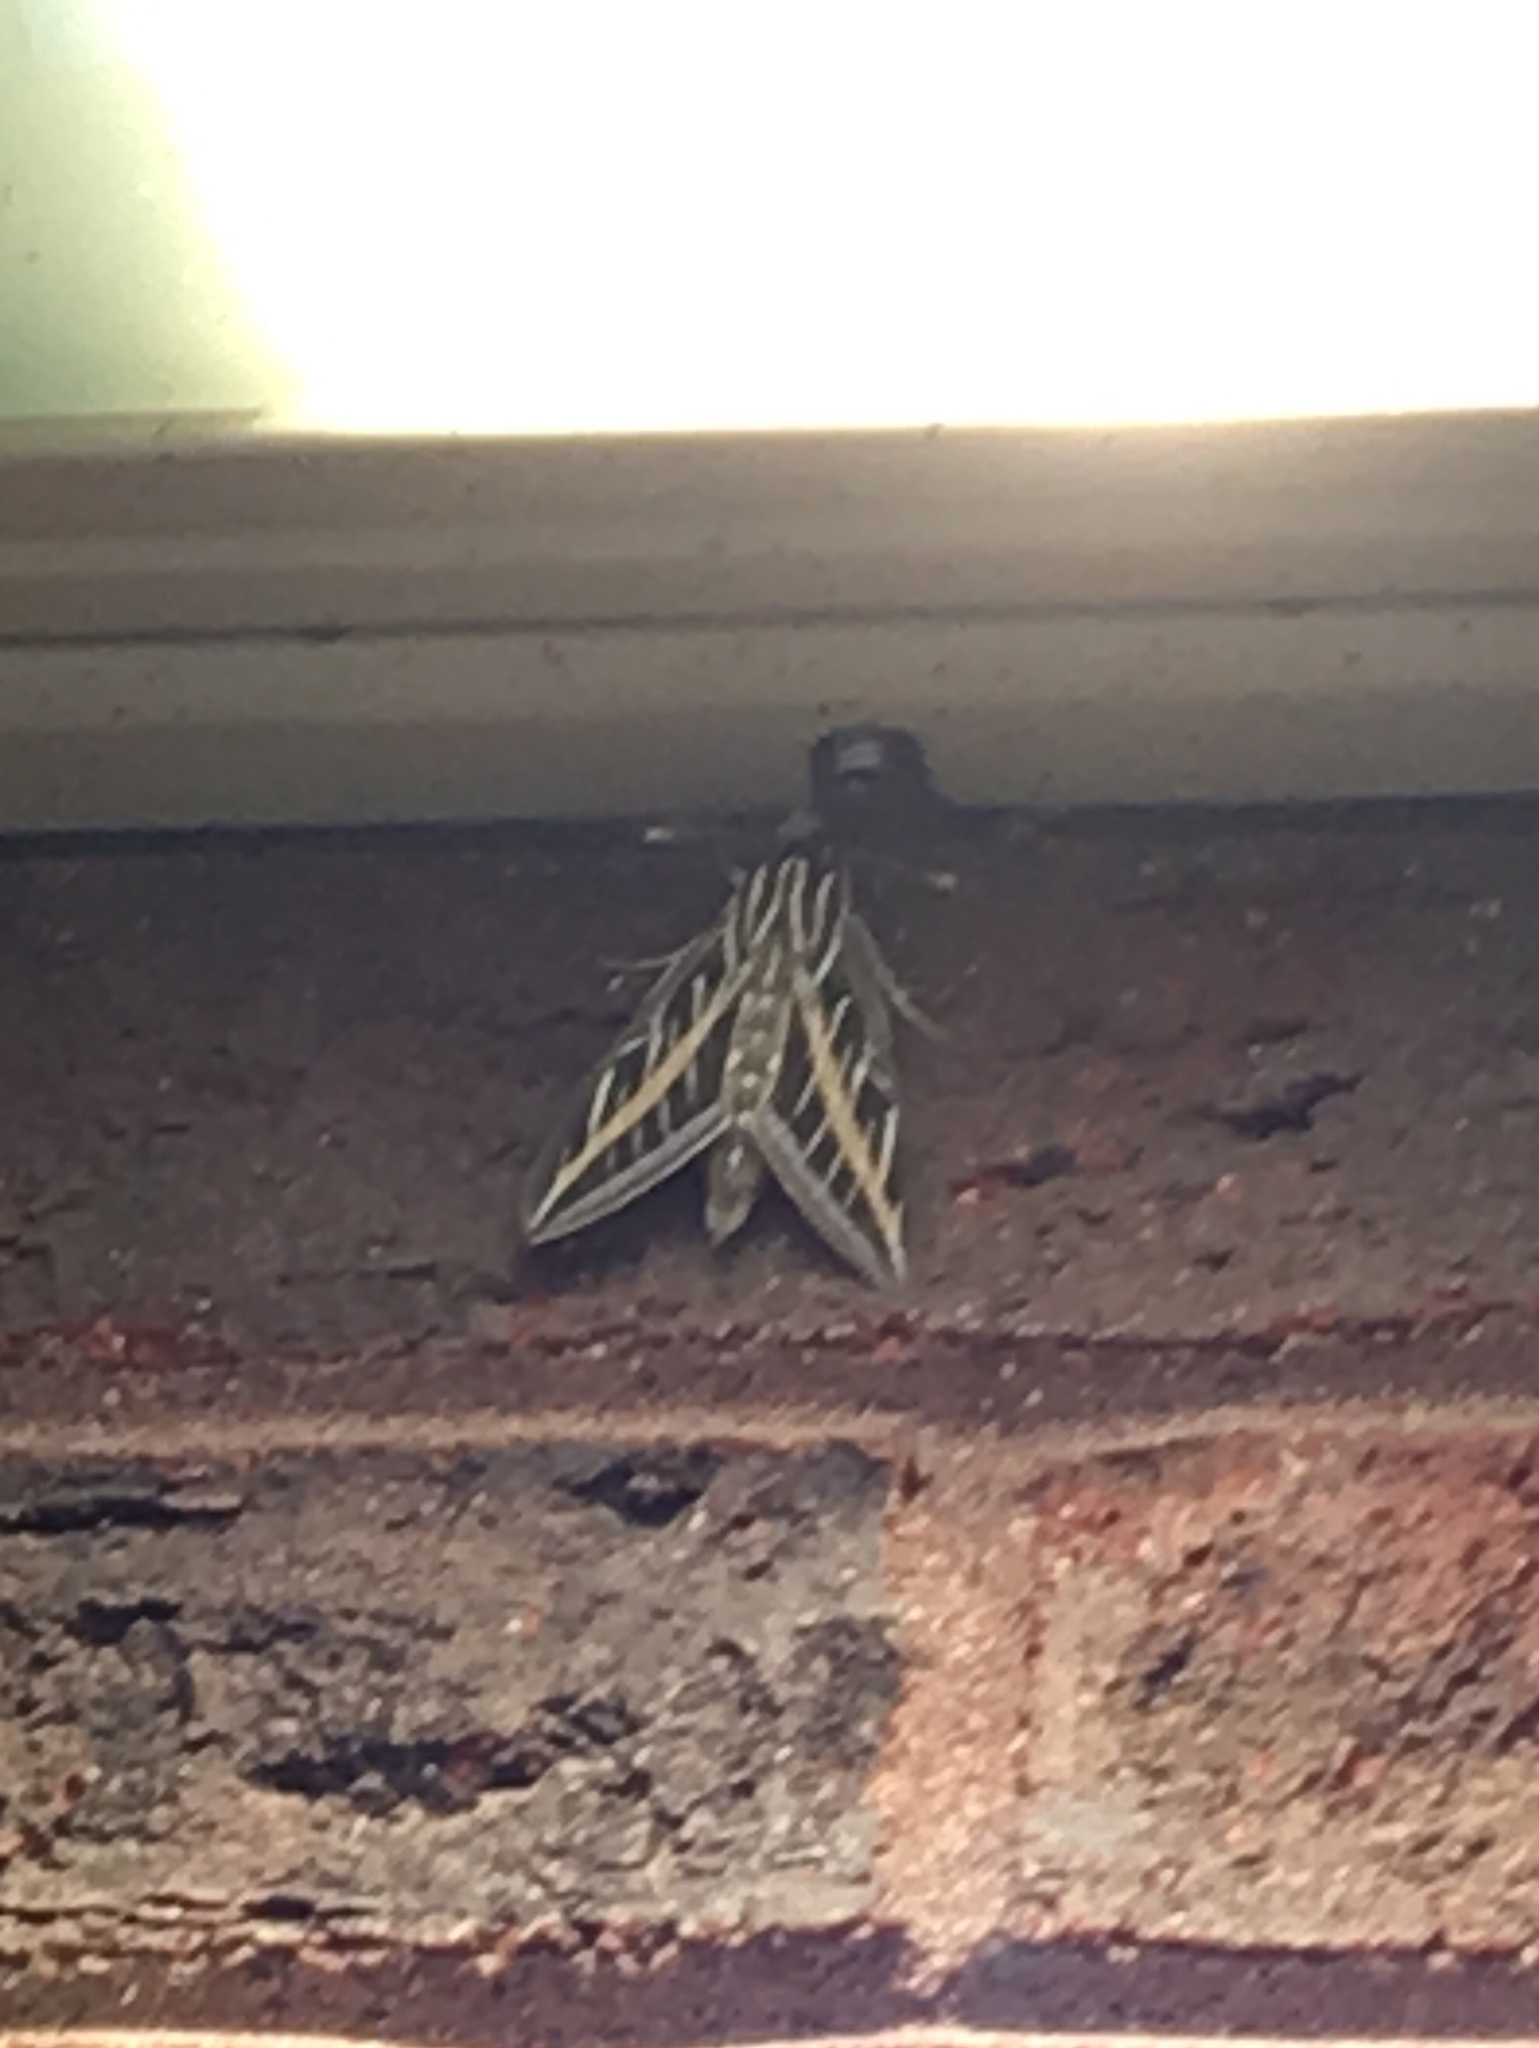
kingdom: Animalia
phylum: Arthropoda
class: Insecta
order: Lepidoptera
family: Sphingidae
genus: Hyles
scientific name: Hyles lineata
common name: White-lined sphinx
